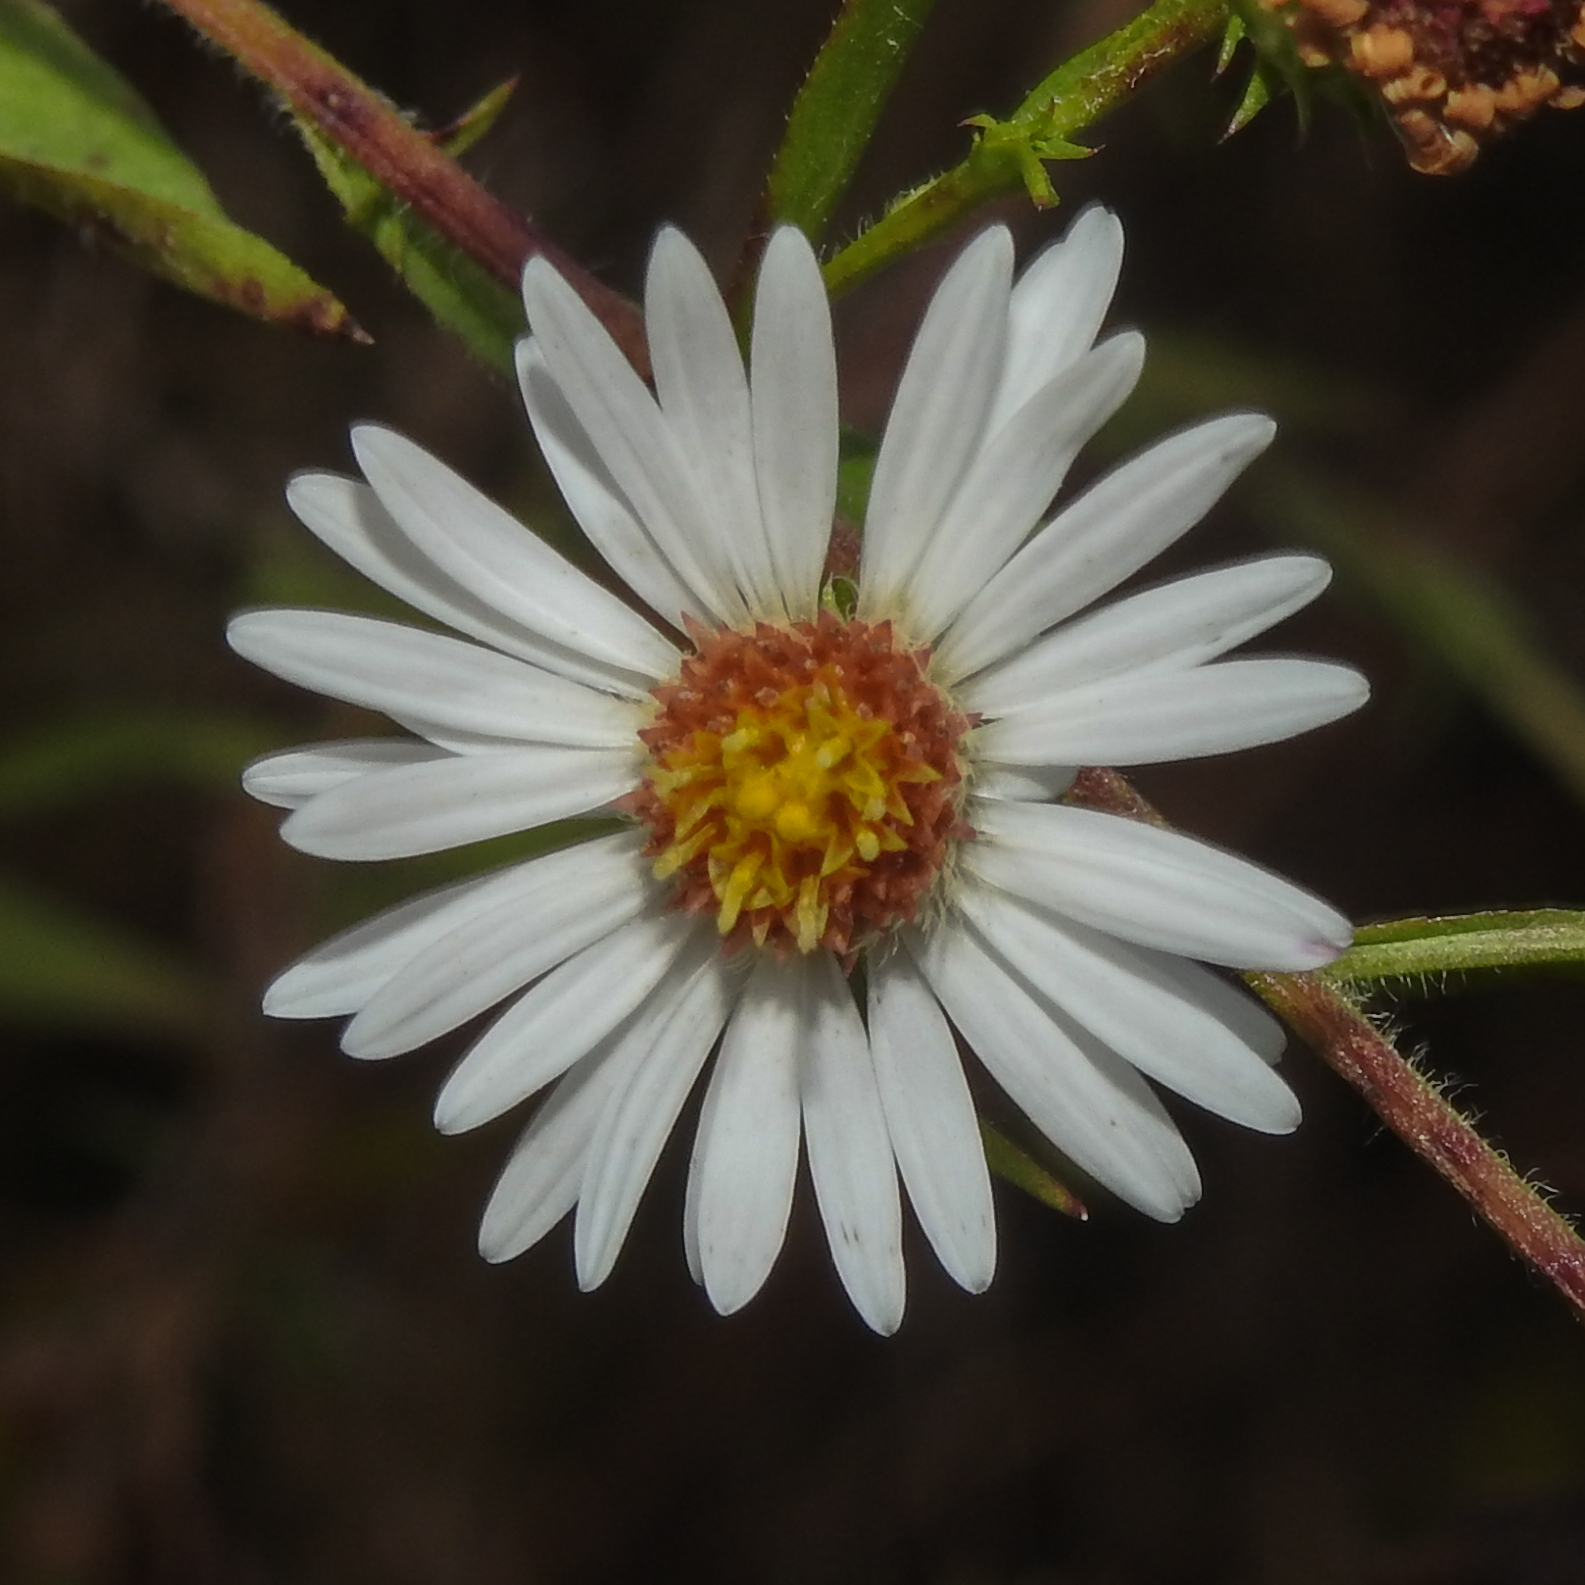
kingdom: Plantae
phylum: Tracheophyta
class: Magnoliopsida
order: Asterales
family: Asteraceae
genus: Symphyotrichum
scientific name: Symphyotrichum pilosum
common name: Awl aster
